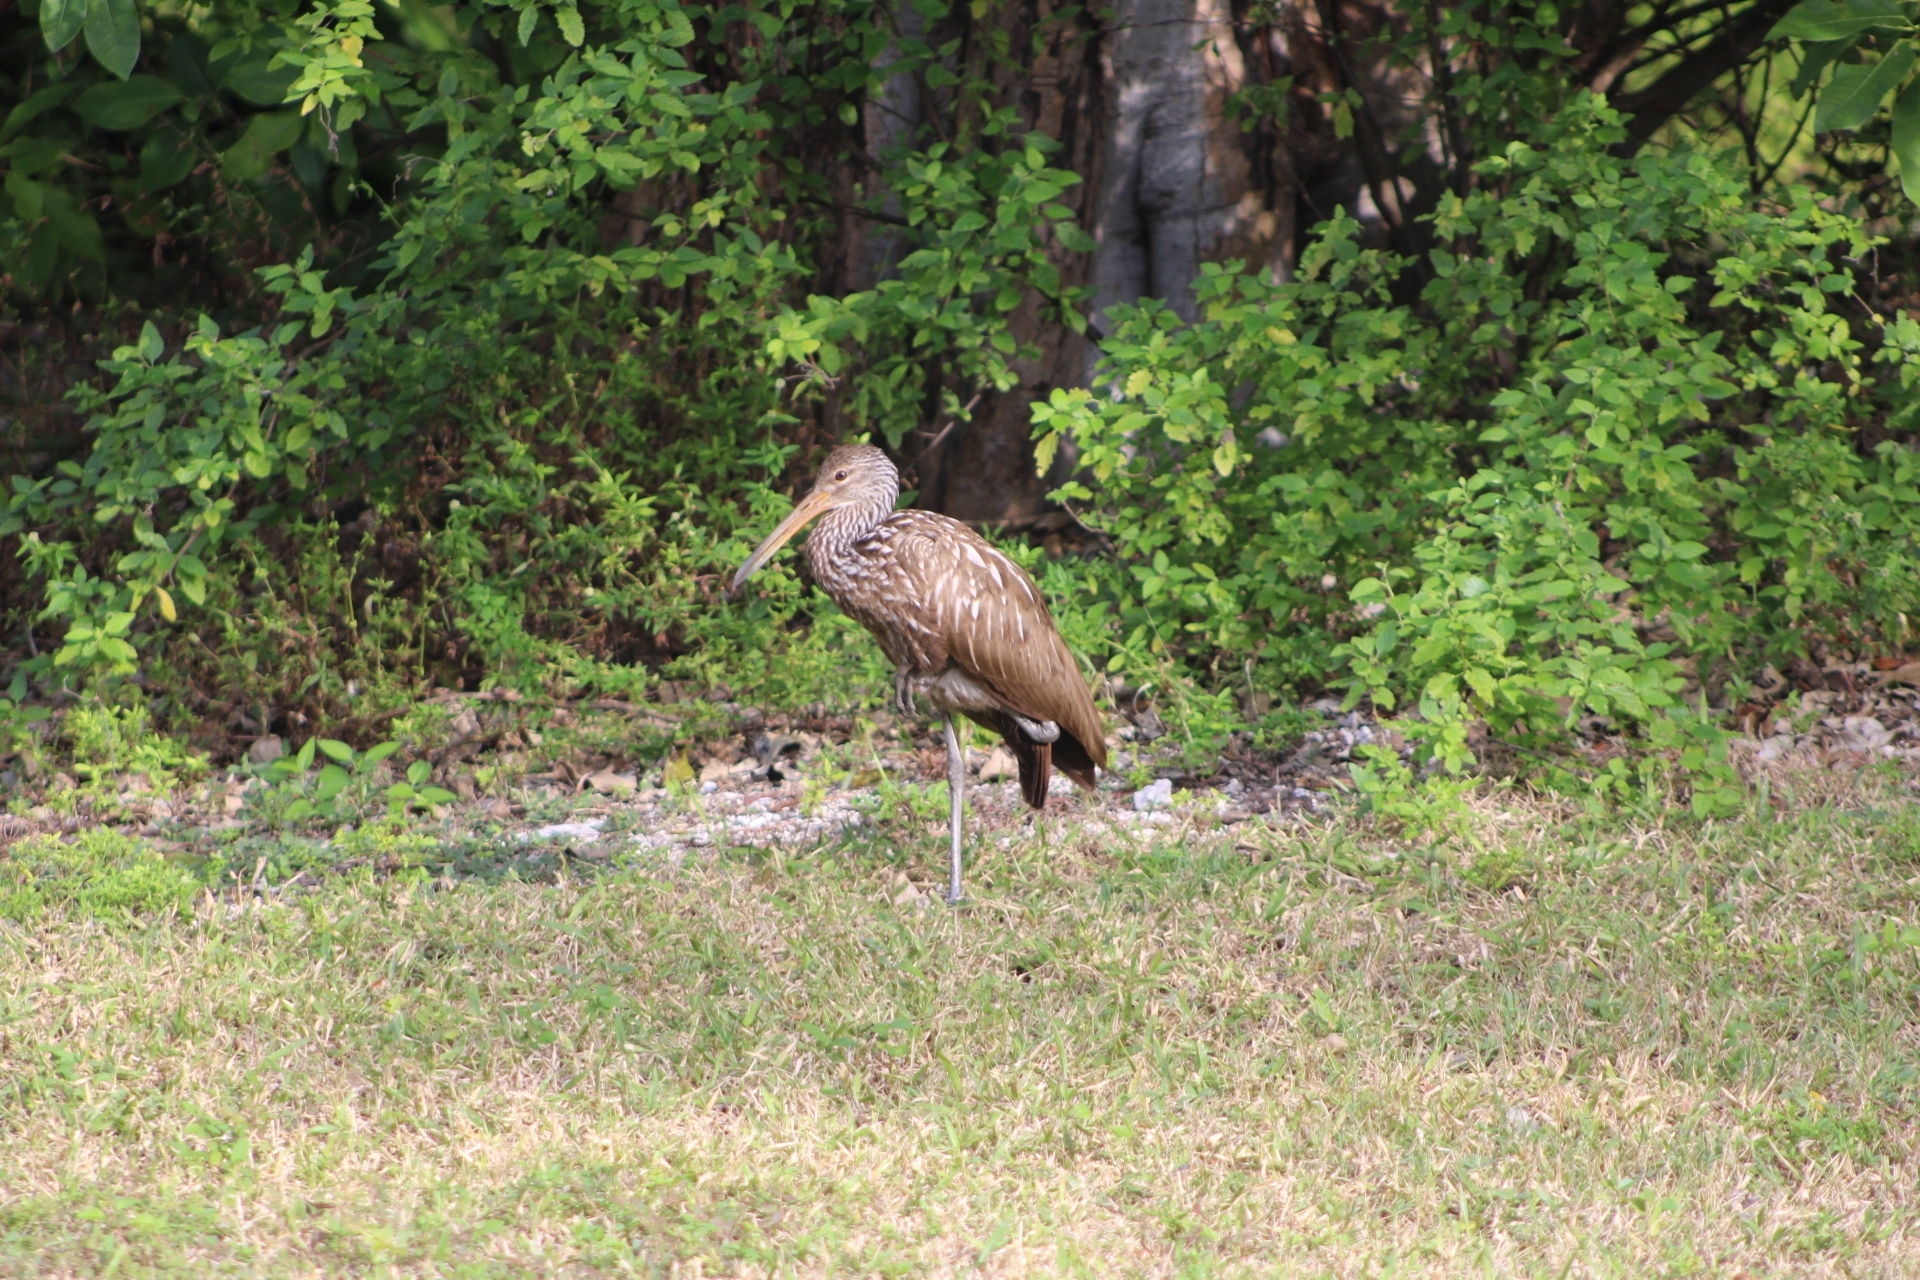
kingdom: Animalia
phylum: Chordata
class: Aves
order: Gruiformes
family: Aramidae
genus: Aramus
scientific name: Aramus guarauna
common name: Limpkin
